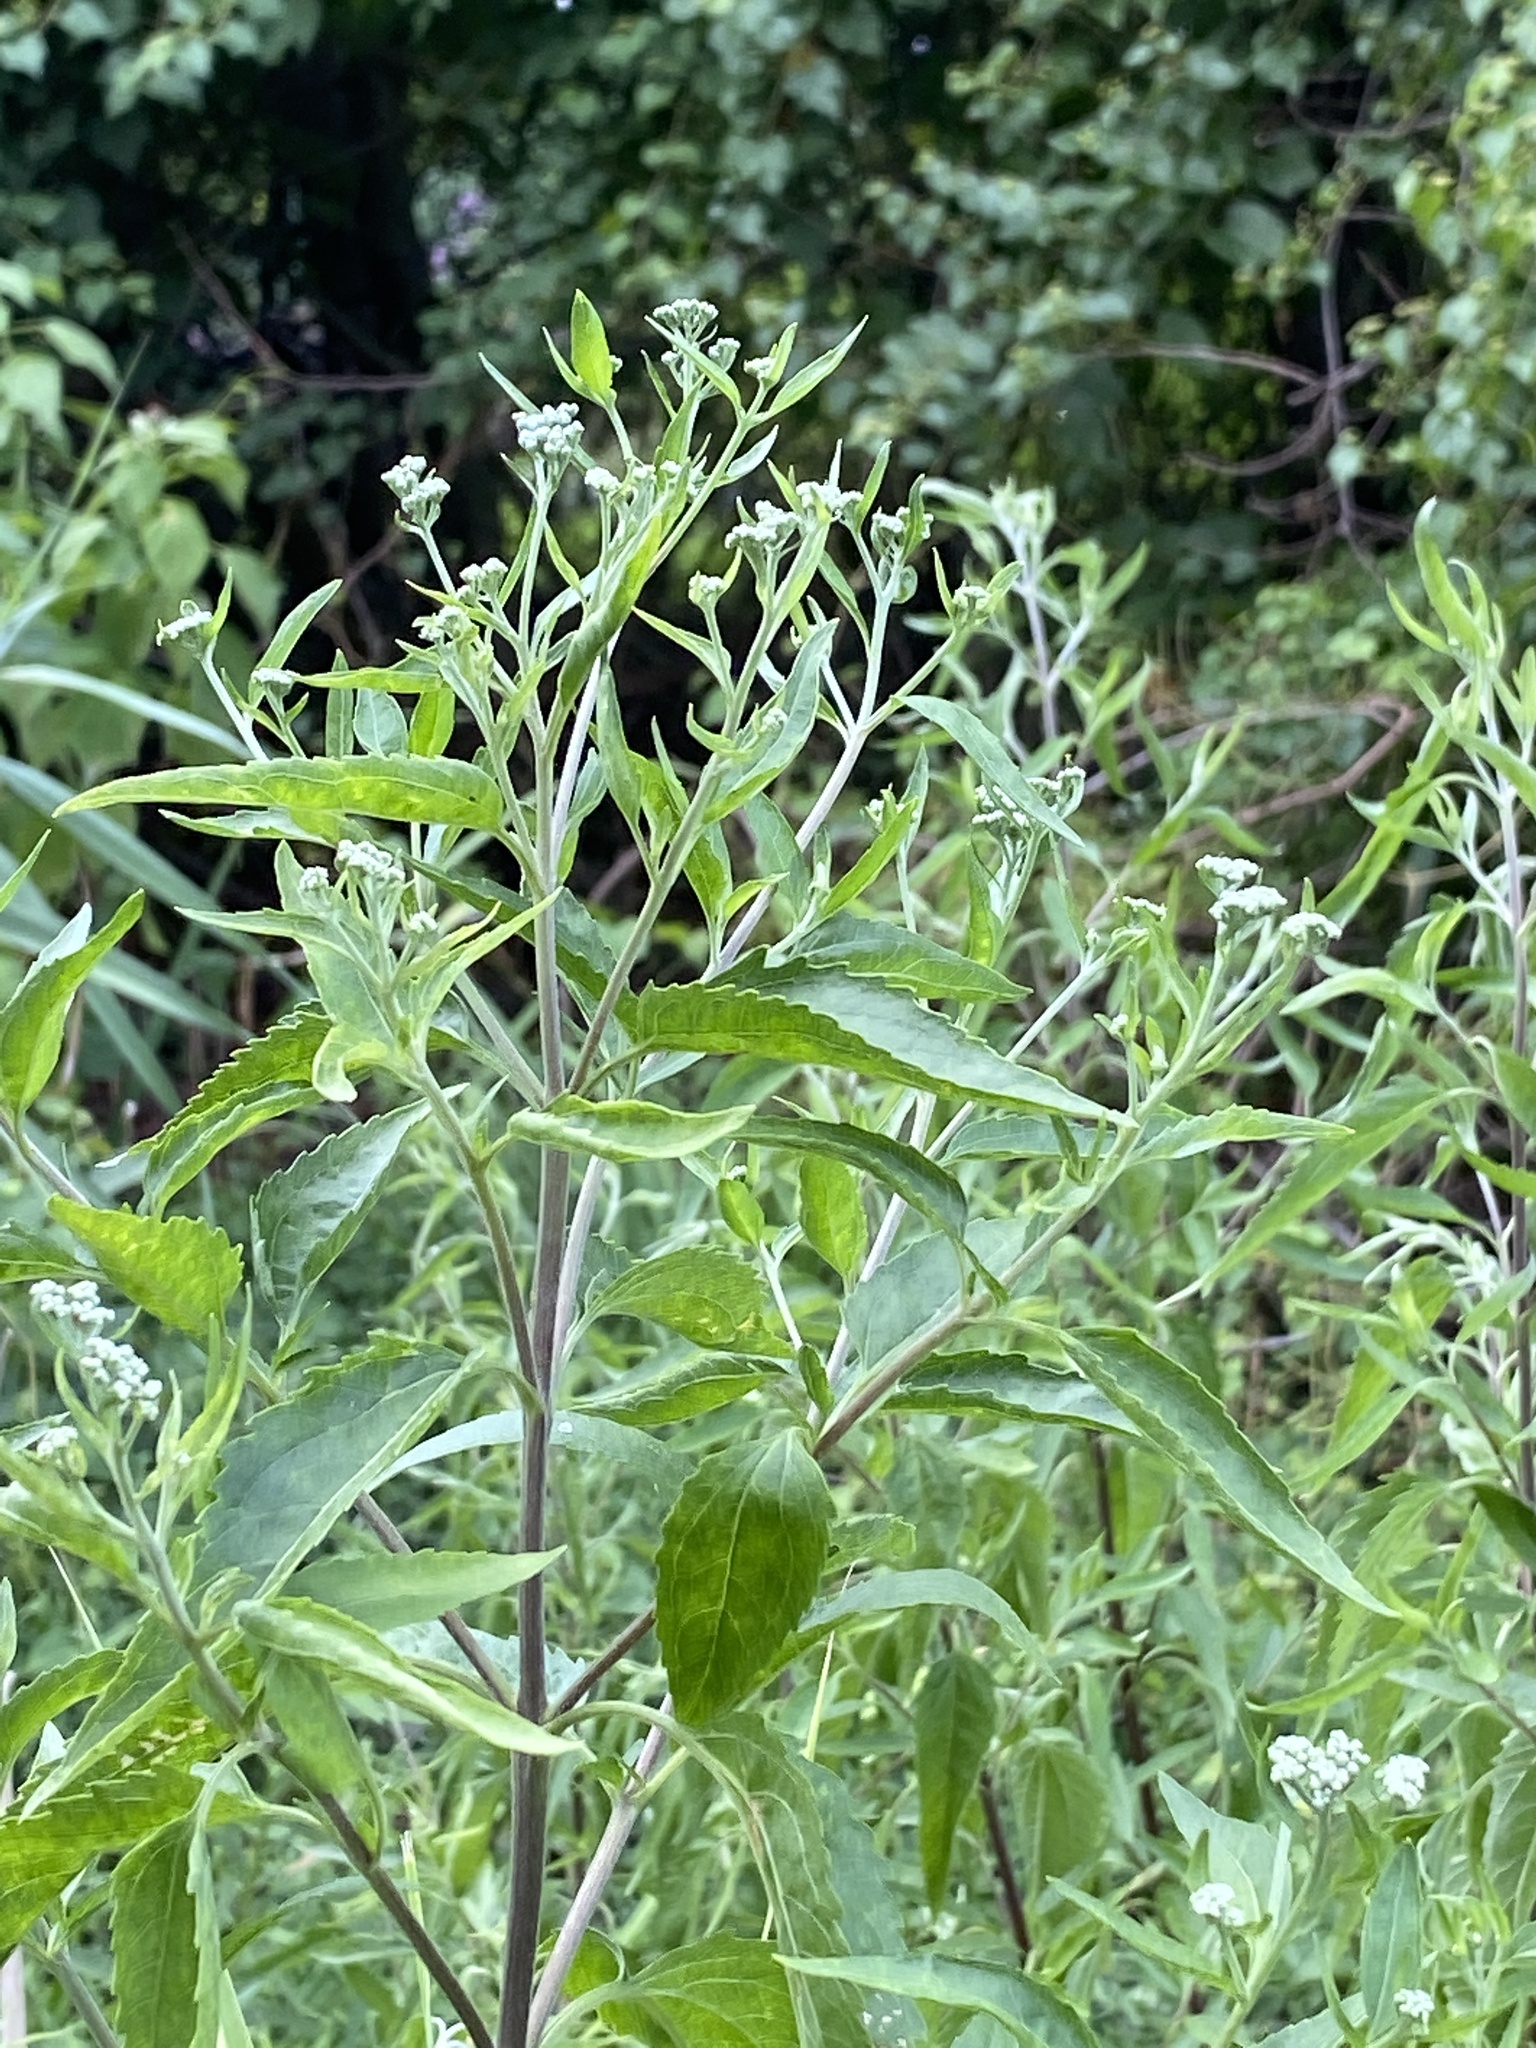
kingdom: Plantae
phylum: Tracheophyta
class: Magnoliopsida
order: Asterales
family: Asteraceae
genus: Eupatorium
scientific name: Eupatorium serotinum
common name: Late boneset
